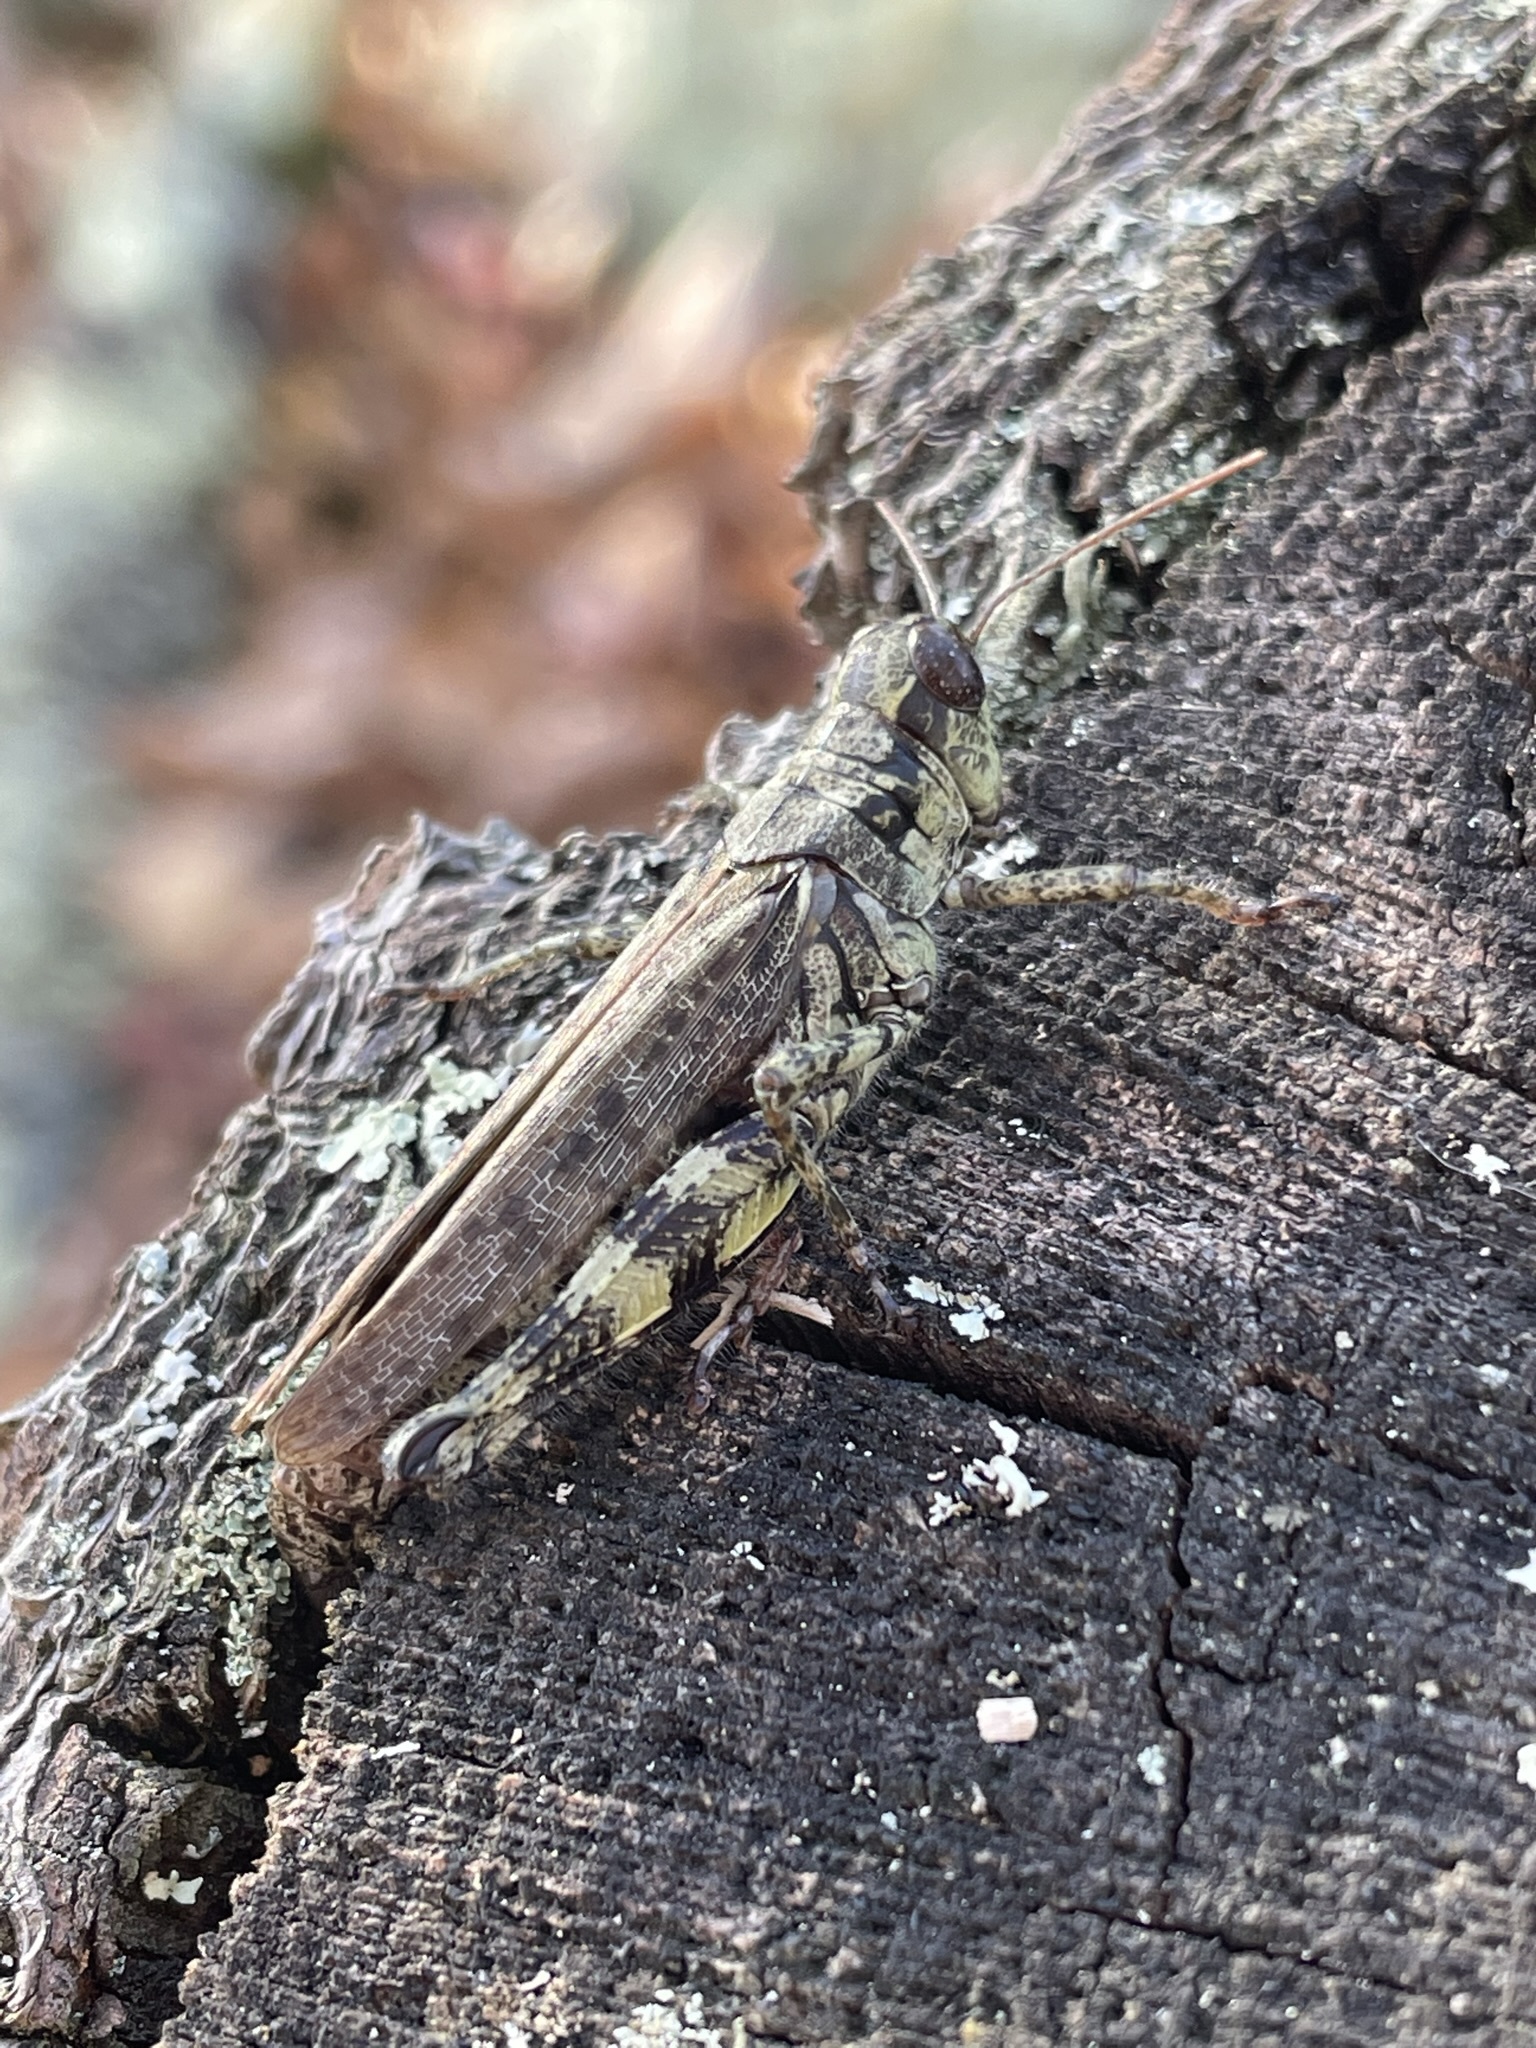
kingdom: Animalia
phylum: Arthropoda
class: Insecta
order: Orthoptera
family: Acrididae
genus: Melanoplus
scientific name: Melanoplus punctulatus
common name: Pine-tree spur-throat grasshopper
